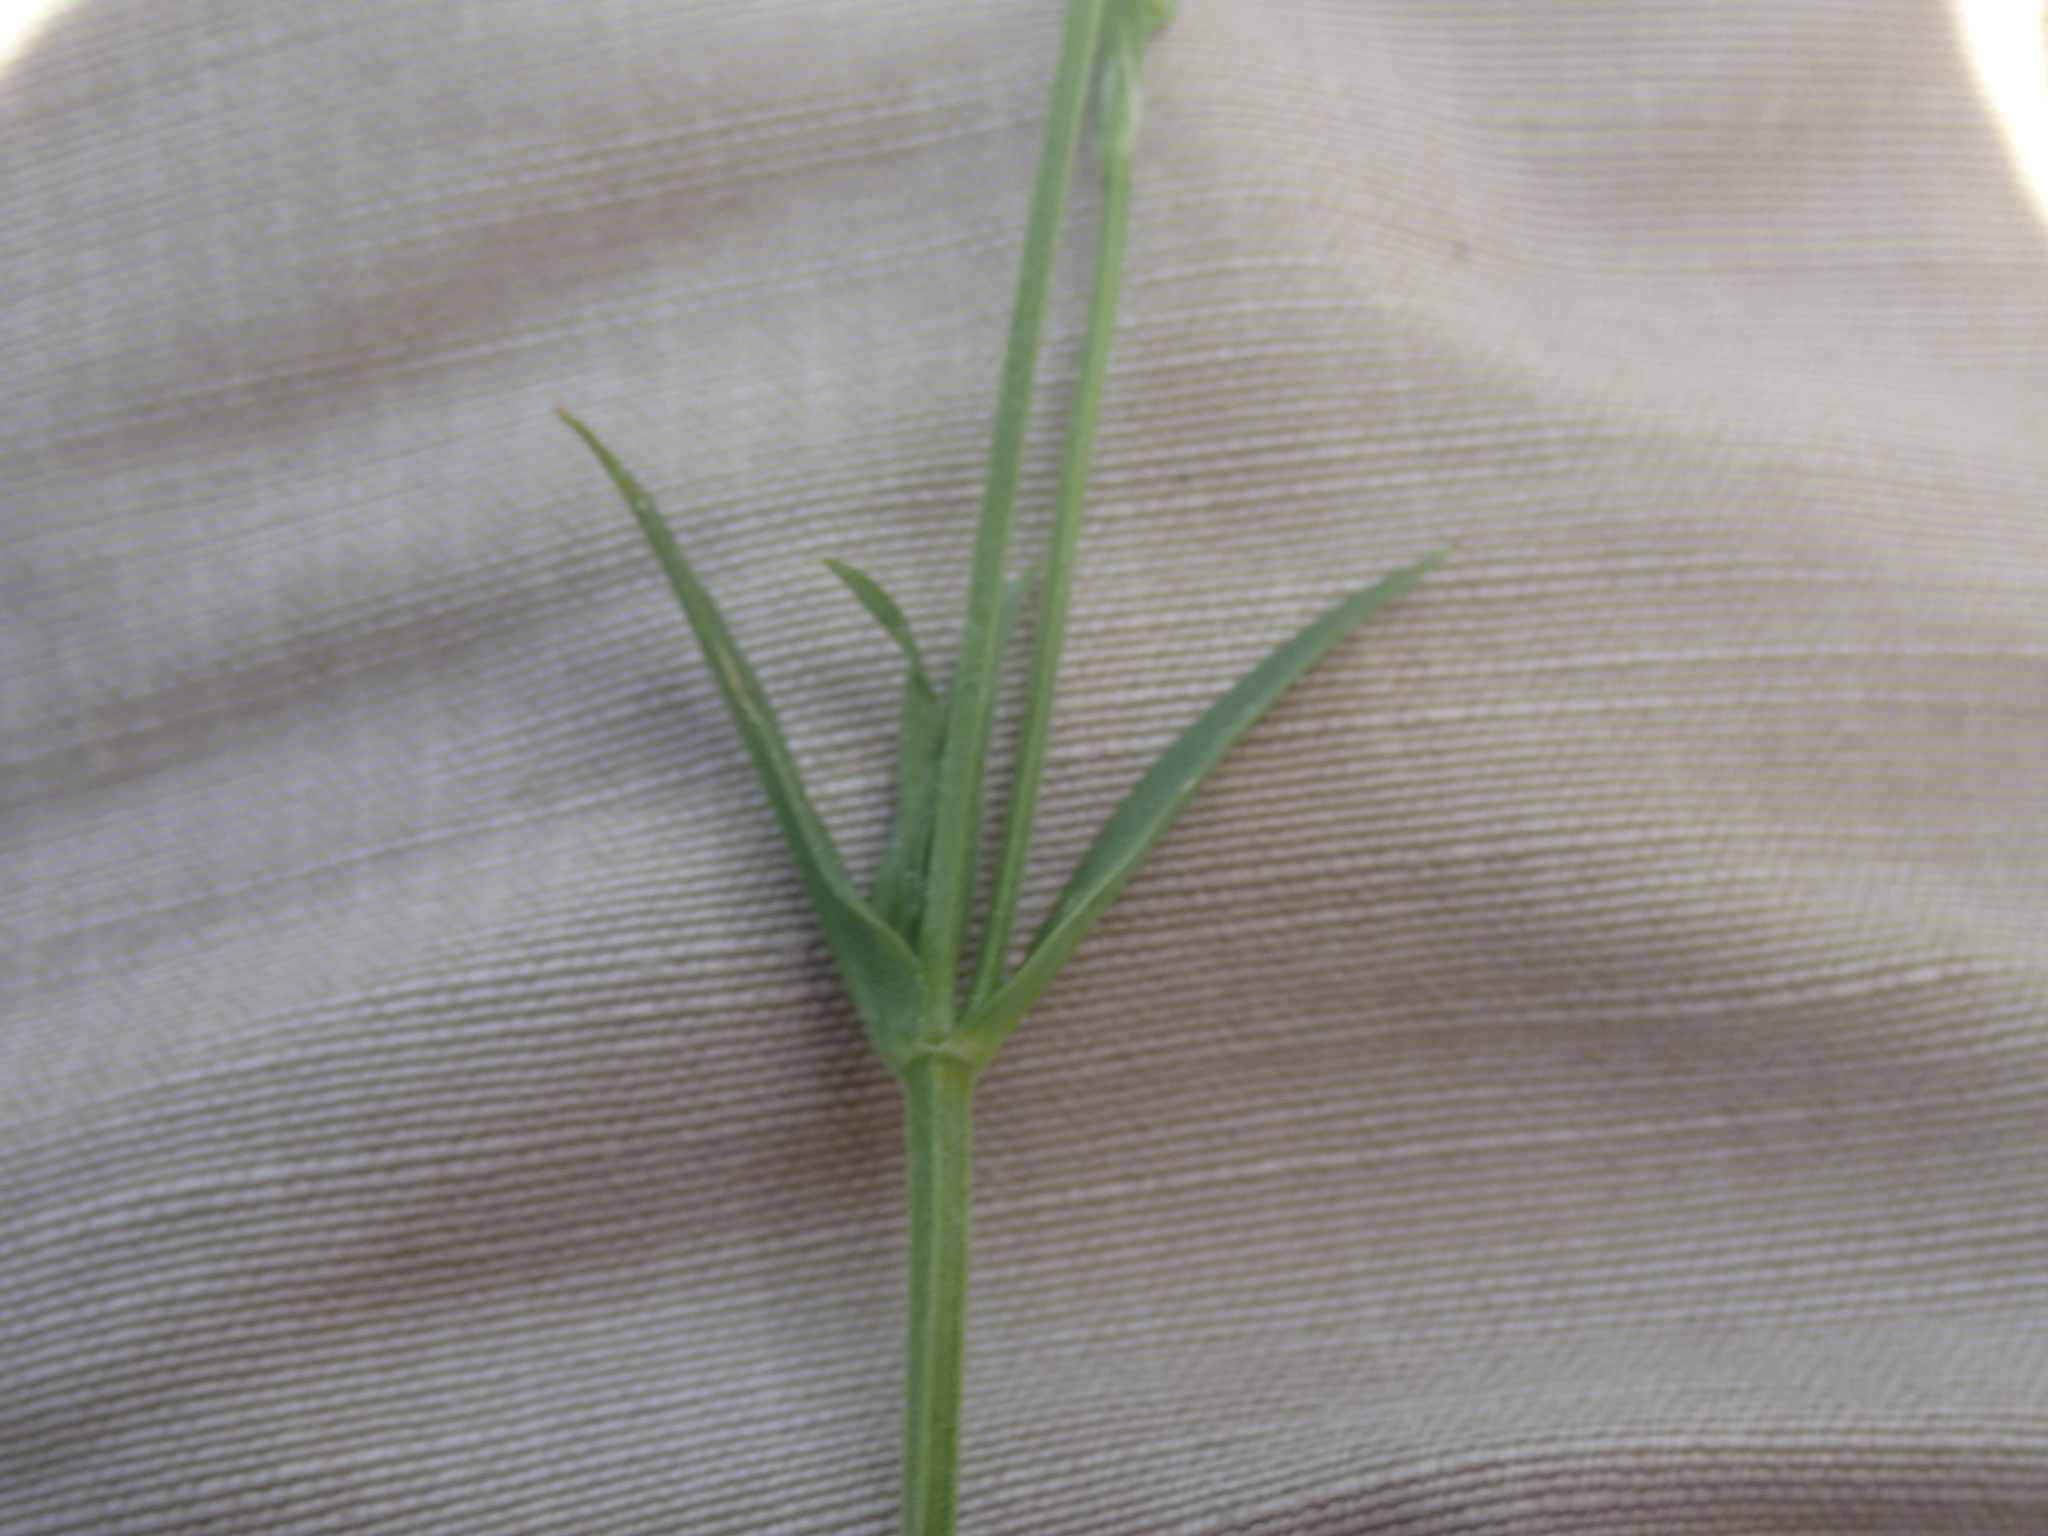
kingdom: Plantae
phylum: Tracheophyta
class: Magnoliopsida
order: Caryophyllales
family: Caryophyllaceae
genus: Stellaria
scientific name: Stellaria graminea
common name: Grass-like starwort
